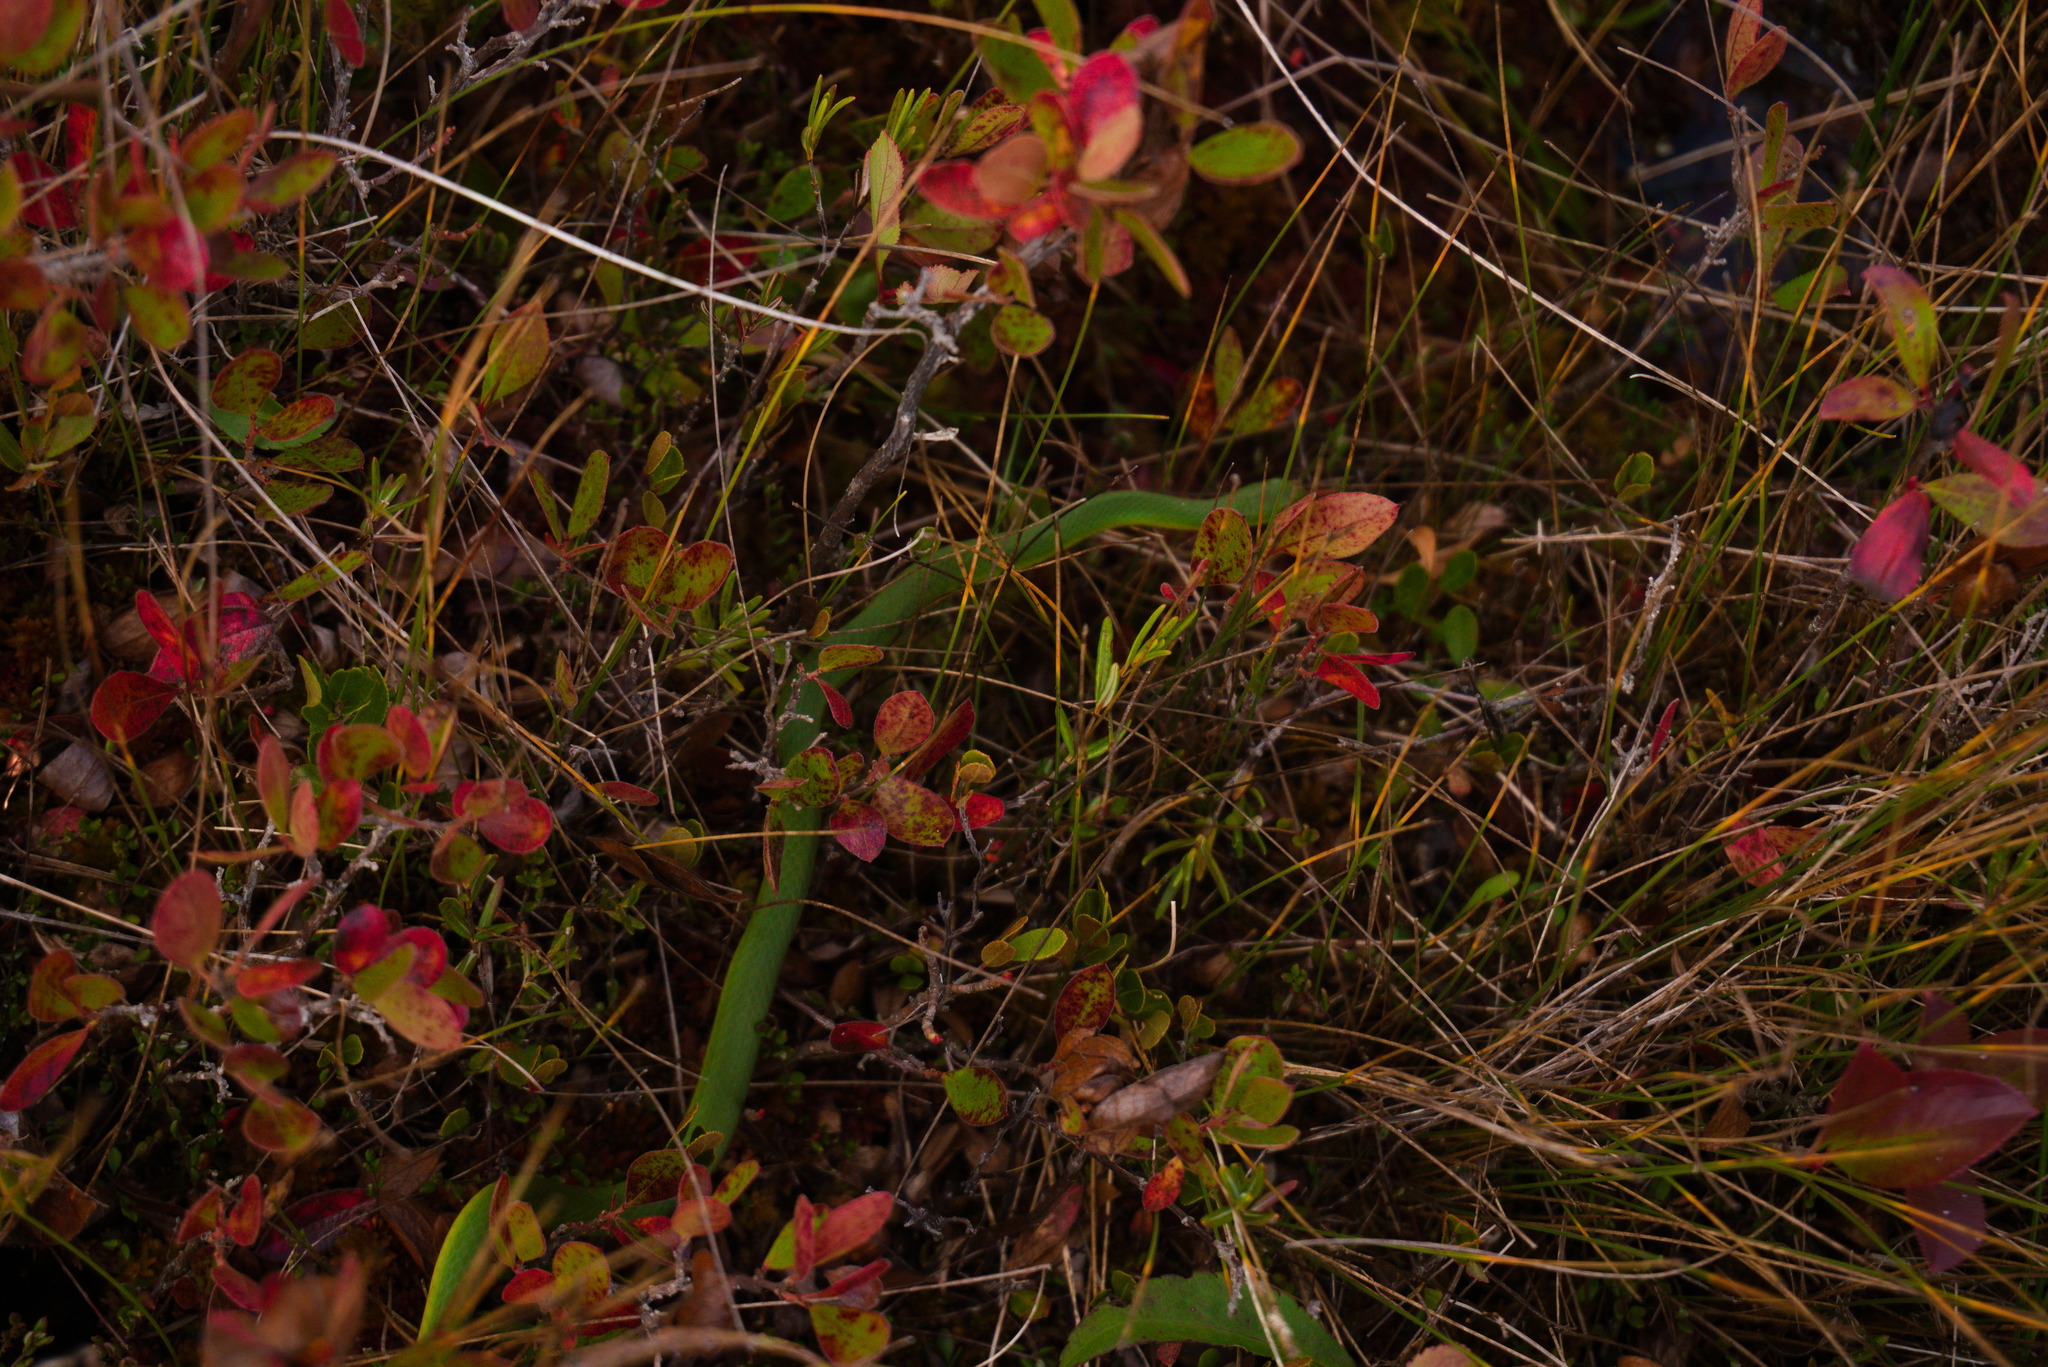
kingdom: Animalia
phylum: Chordata
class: Squamata
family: Colubridae
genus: Opheodrys
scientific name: Opheodrys vernalis
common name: Smooth green snake
